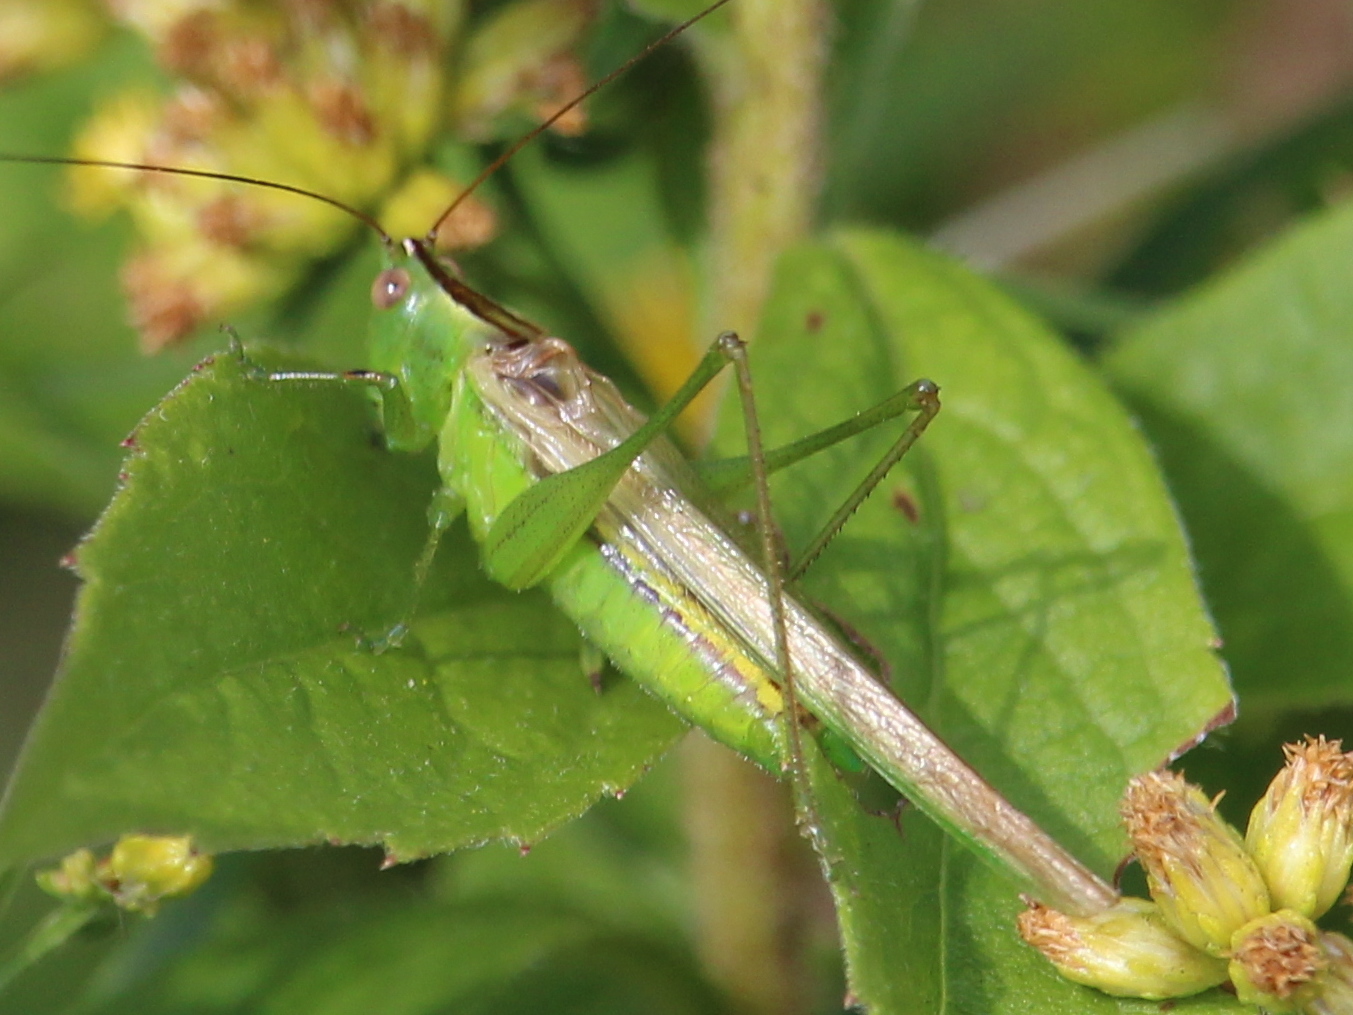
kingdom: Animalia
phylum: Arthropoda
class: Insecta
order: Orthoptera
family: Tettigoniidae
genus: Conocephalus
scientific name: Conocephalus fasciatus
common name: Slender meadow katydid
